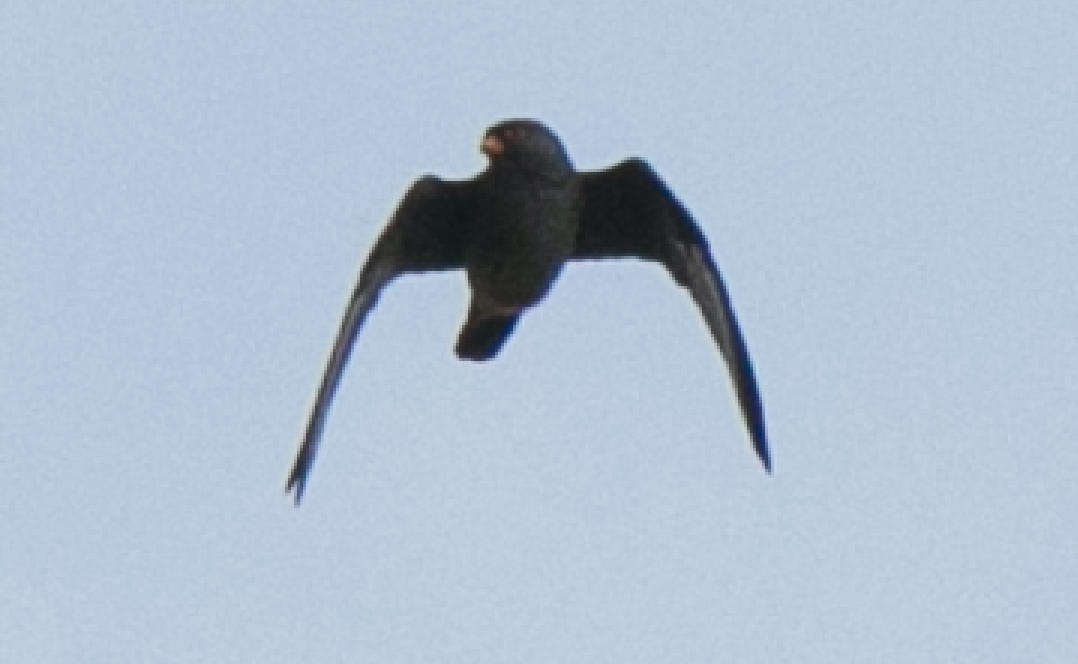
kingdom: Animalia
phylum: Chordata
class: Aves
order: Falconiformes
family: Falconidae
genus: Falco
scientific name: Falco vespertinus
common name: Red-footed falcon
